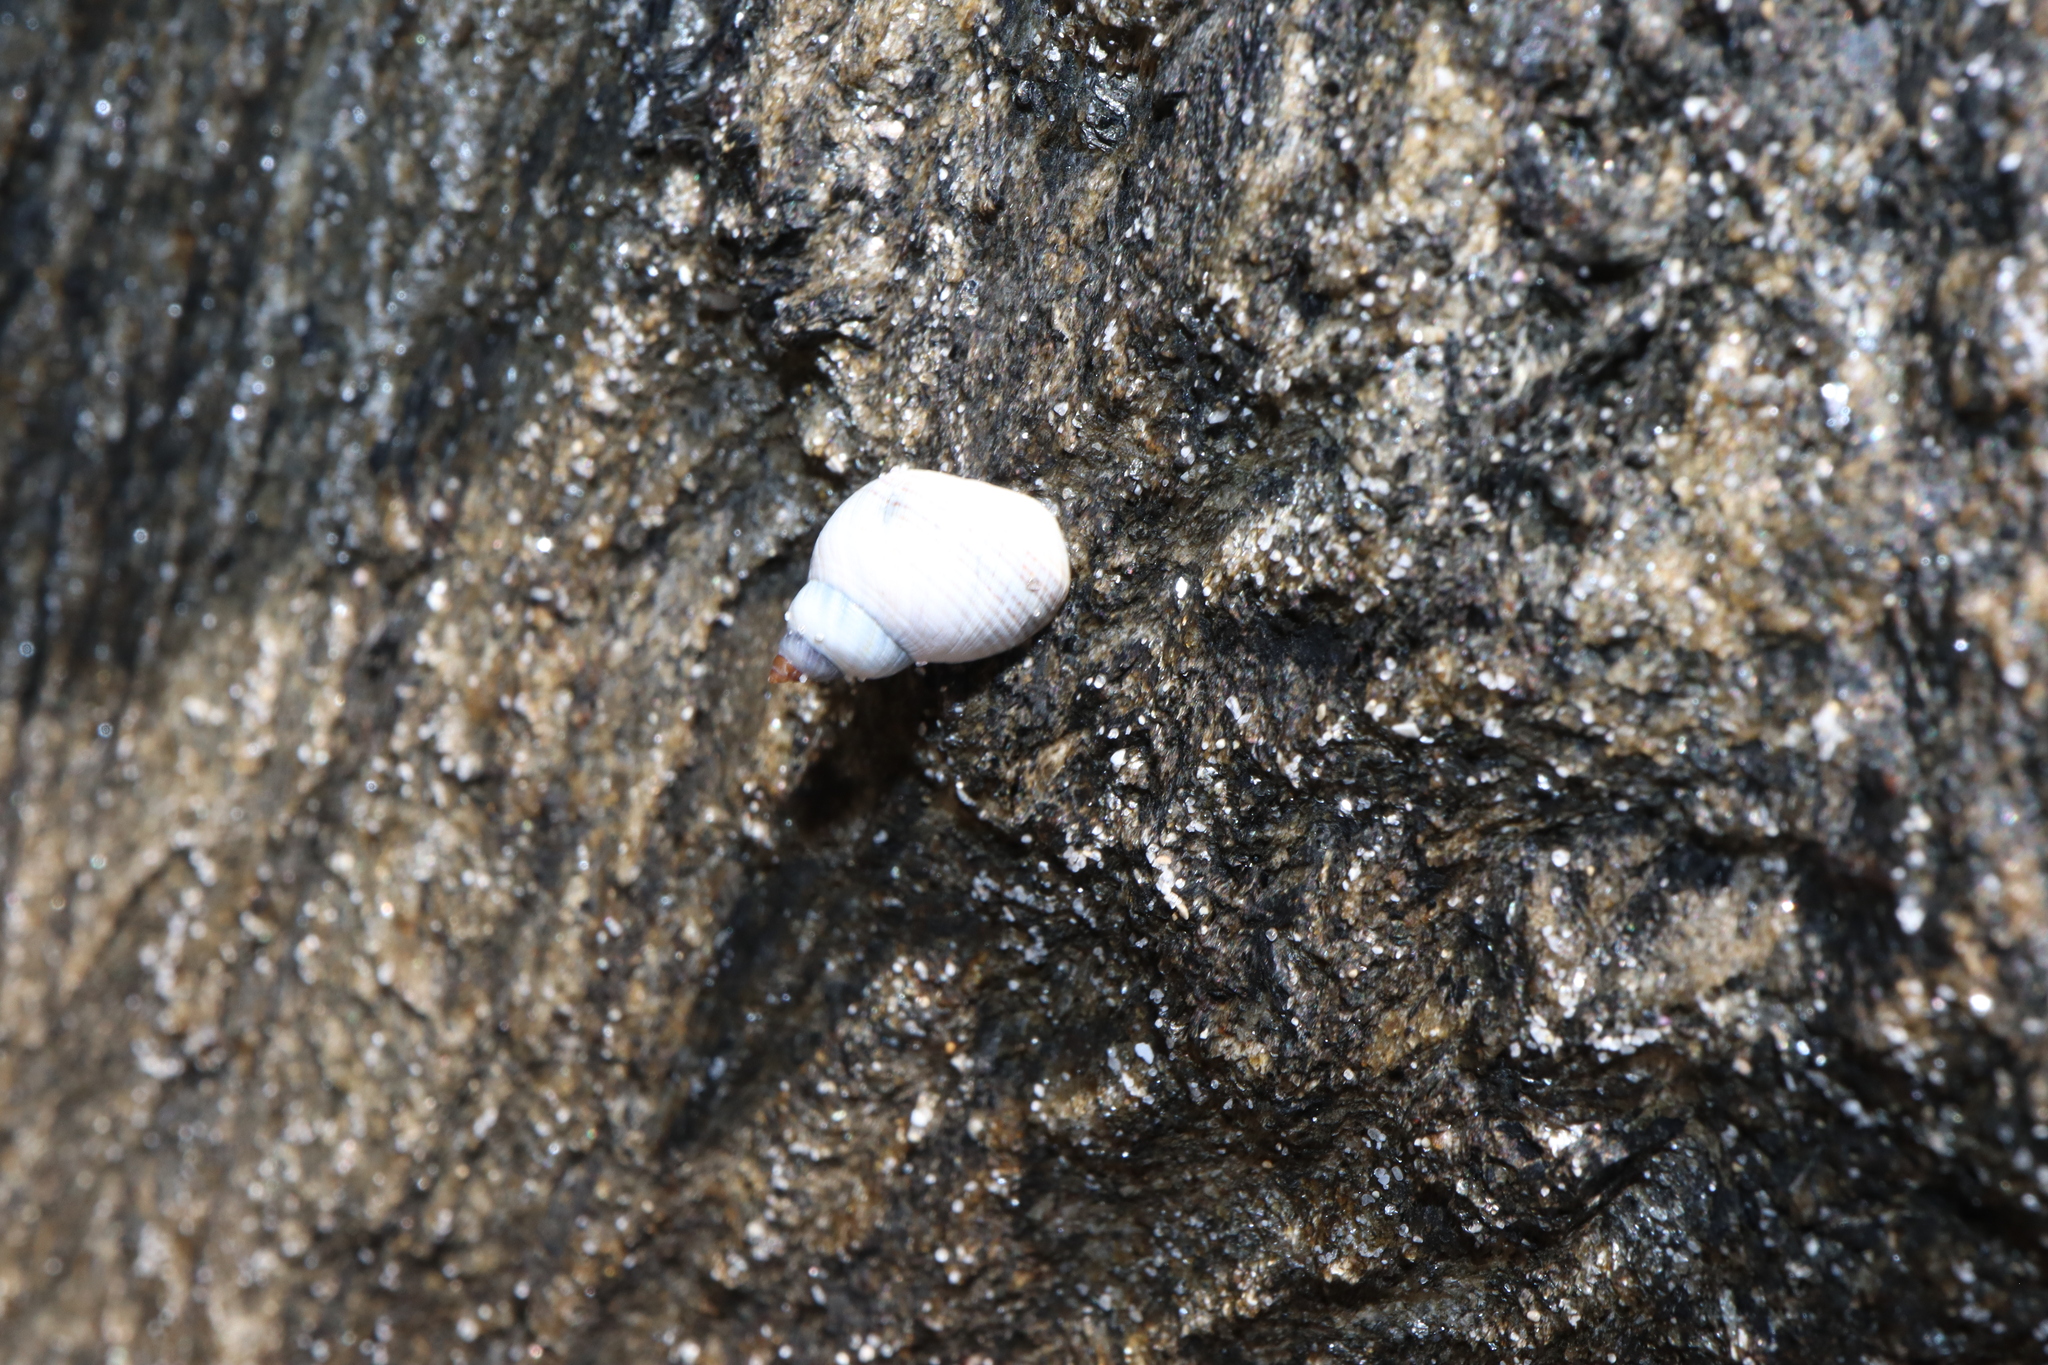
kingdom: Animalia
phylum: Mollusca
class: Gastropoda
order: Littorinimorpha
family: Littorinidae
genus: Austrolittorina
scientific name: Austrolittorina unifasciata
